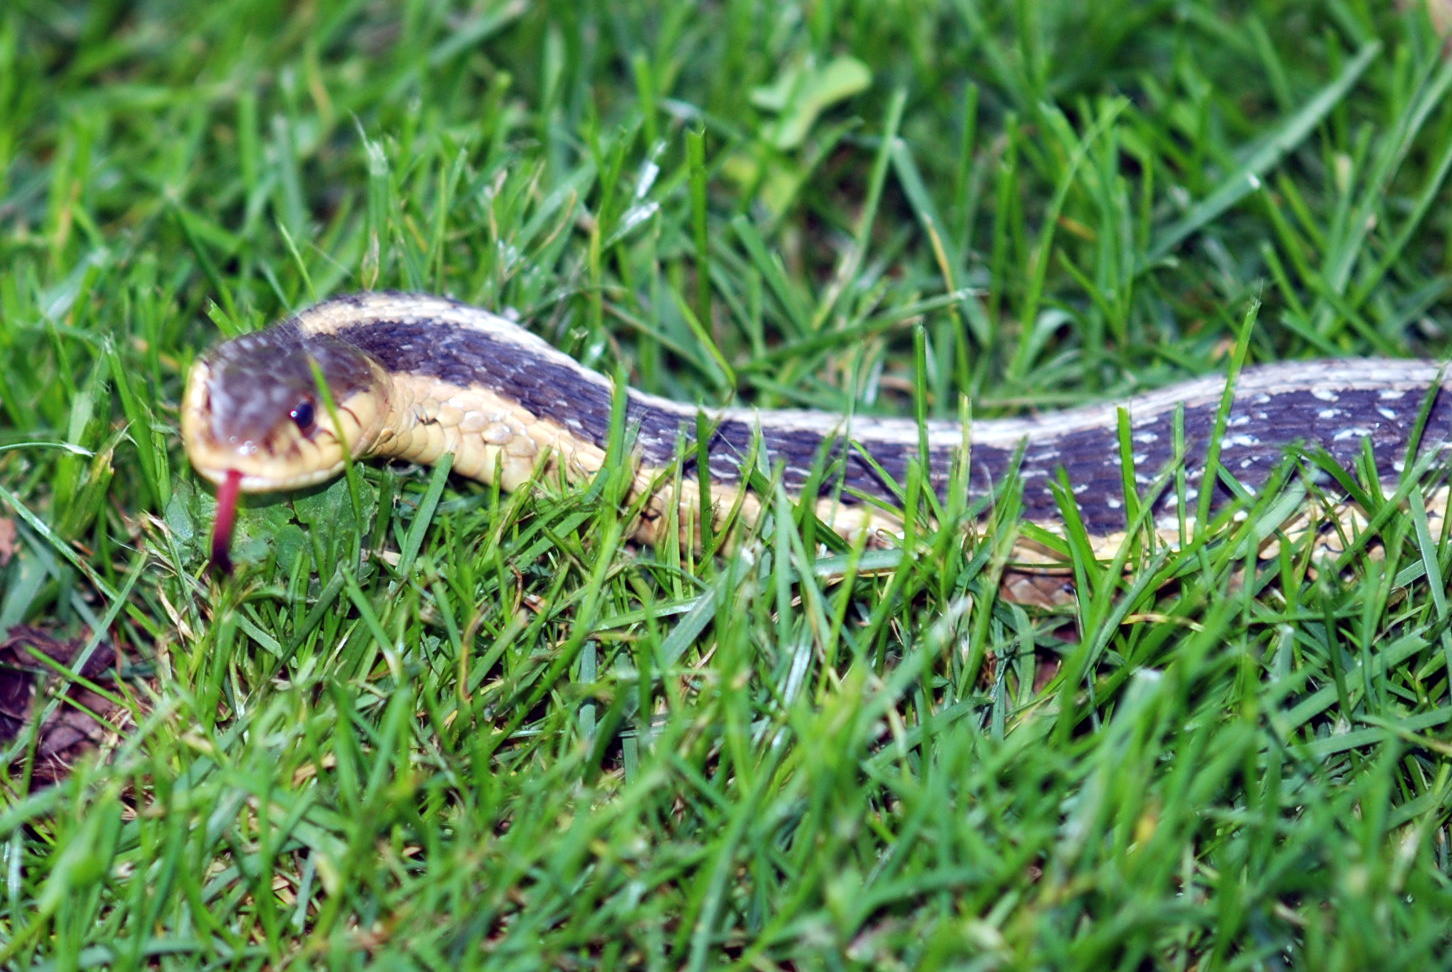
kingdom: Animalia
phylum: Chordata
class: Squamata
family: Colubridae
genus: Thamnophis
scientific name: Thamnophis sirtalis
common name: Common garter snake
